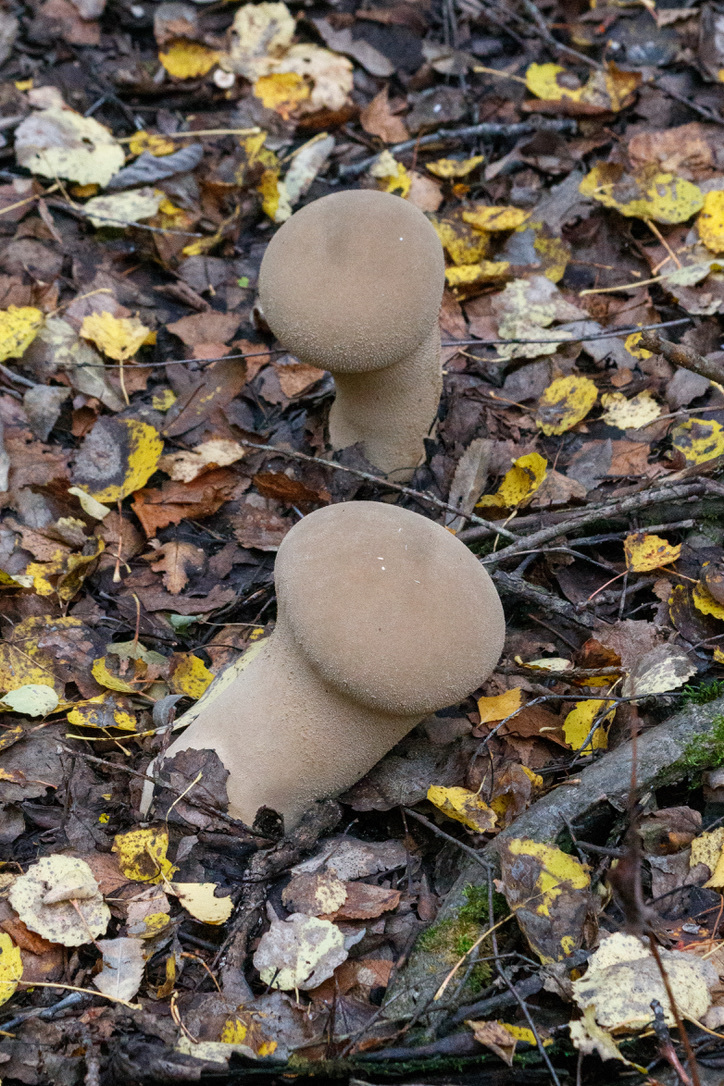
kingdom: Fungi
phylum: Basidiomycota
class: Agaricomycetes
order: Agaricales
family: Lycoperdaceae
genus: Lycoperdon
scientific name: Lycoperdon excipuliforme
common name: Pestle puffball
